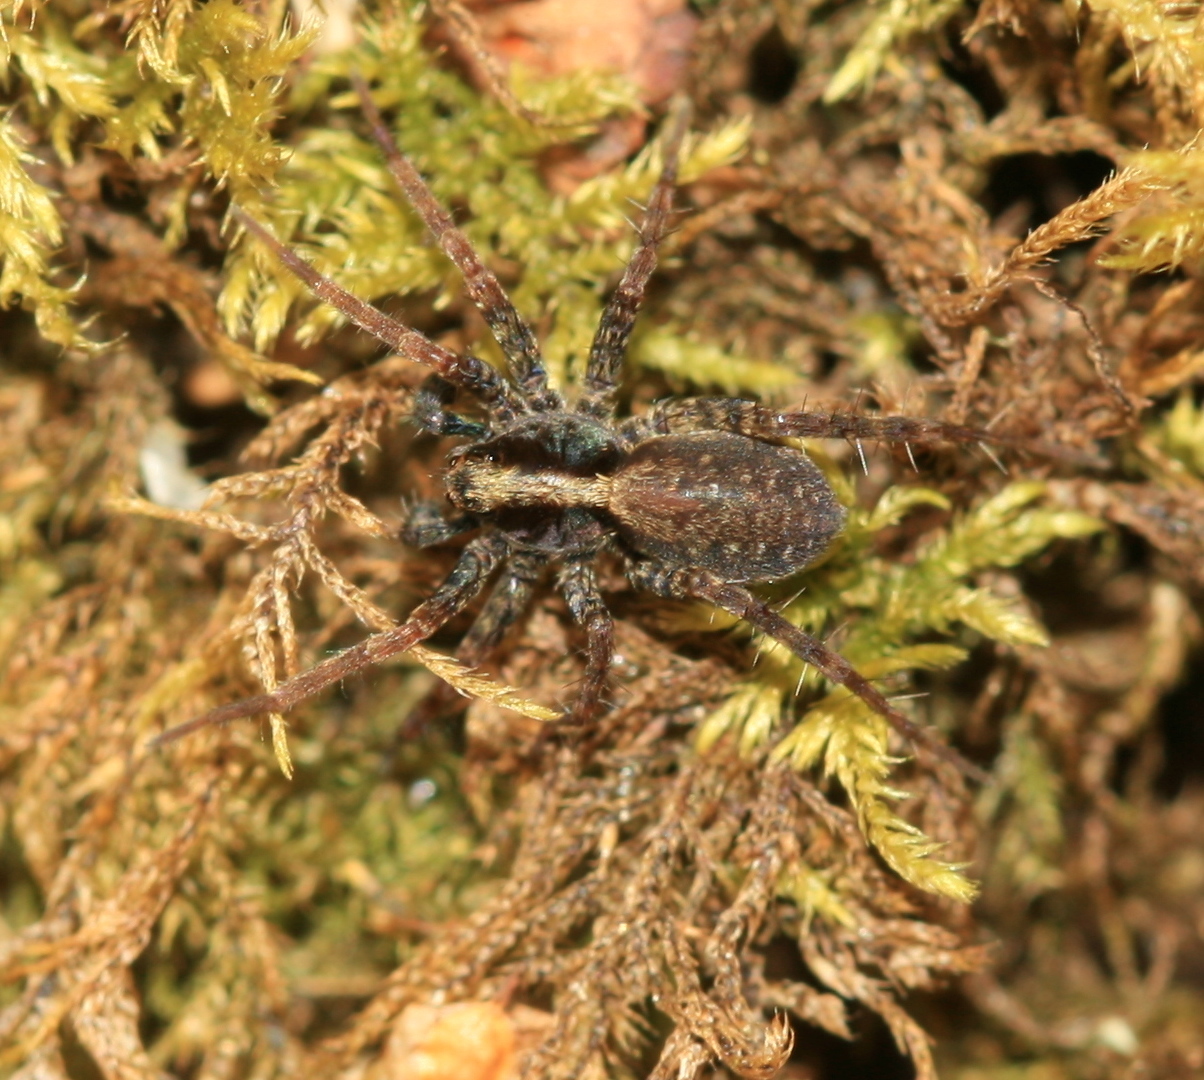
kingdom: Animalia
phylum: Arthropoda
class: Arachnida
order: Araneae
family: Lycosidae
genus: Pardosa
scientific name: Pardosa
